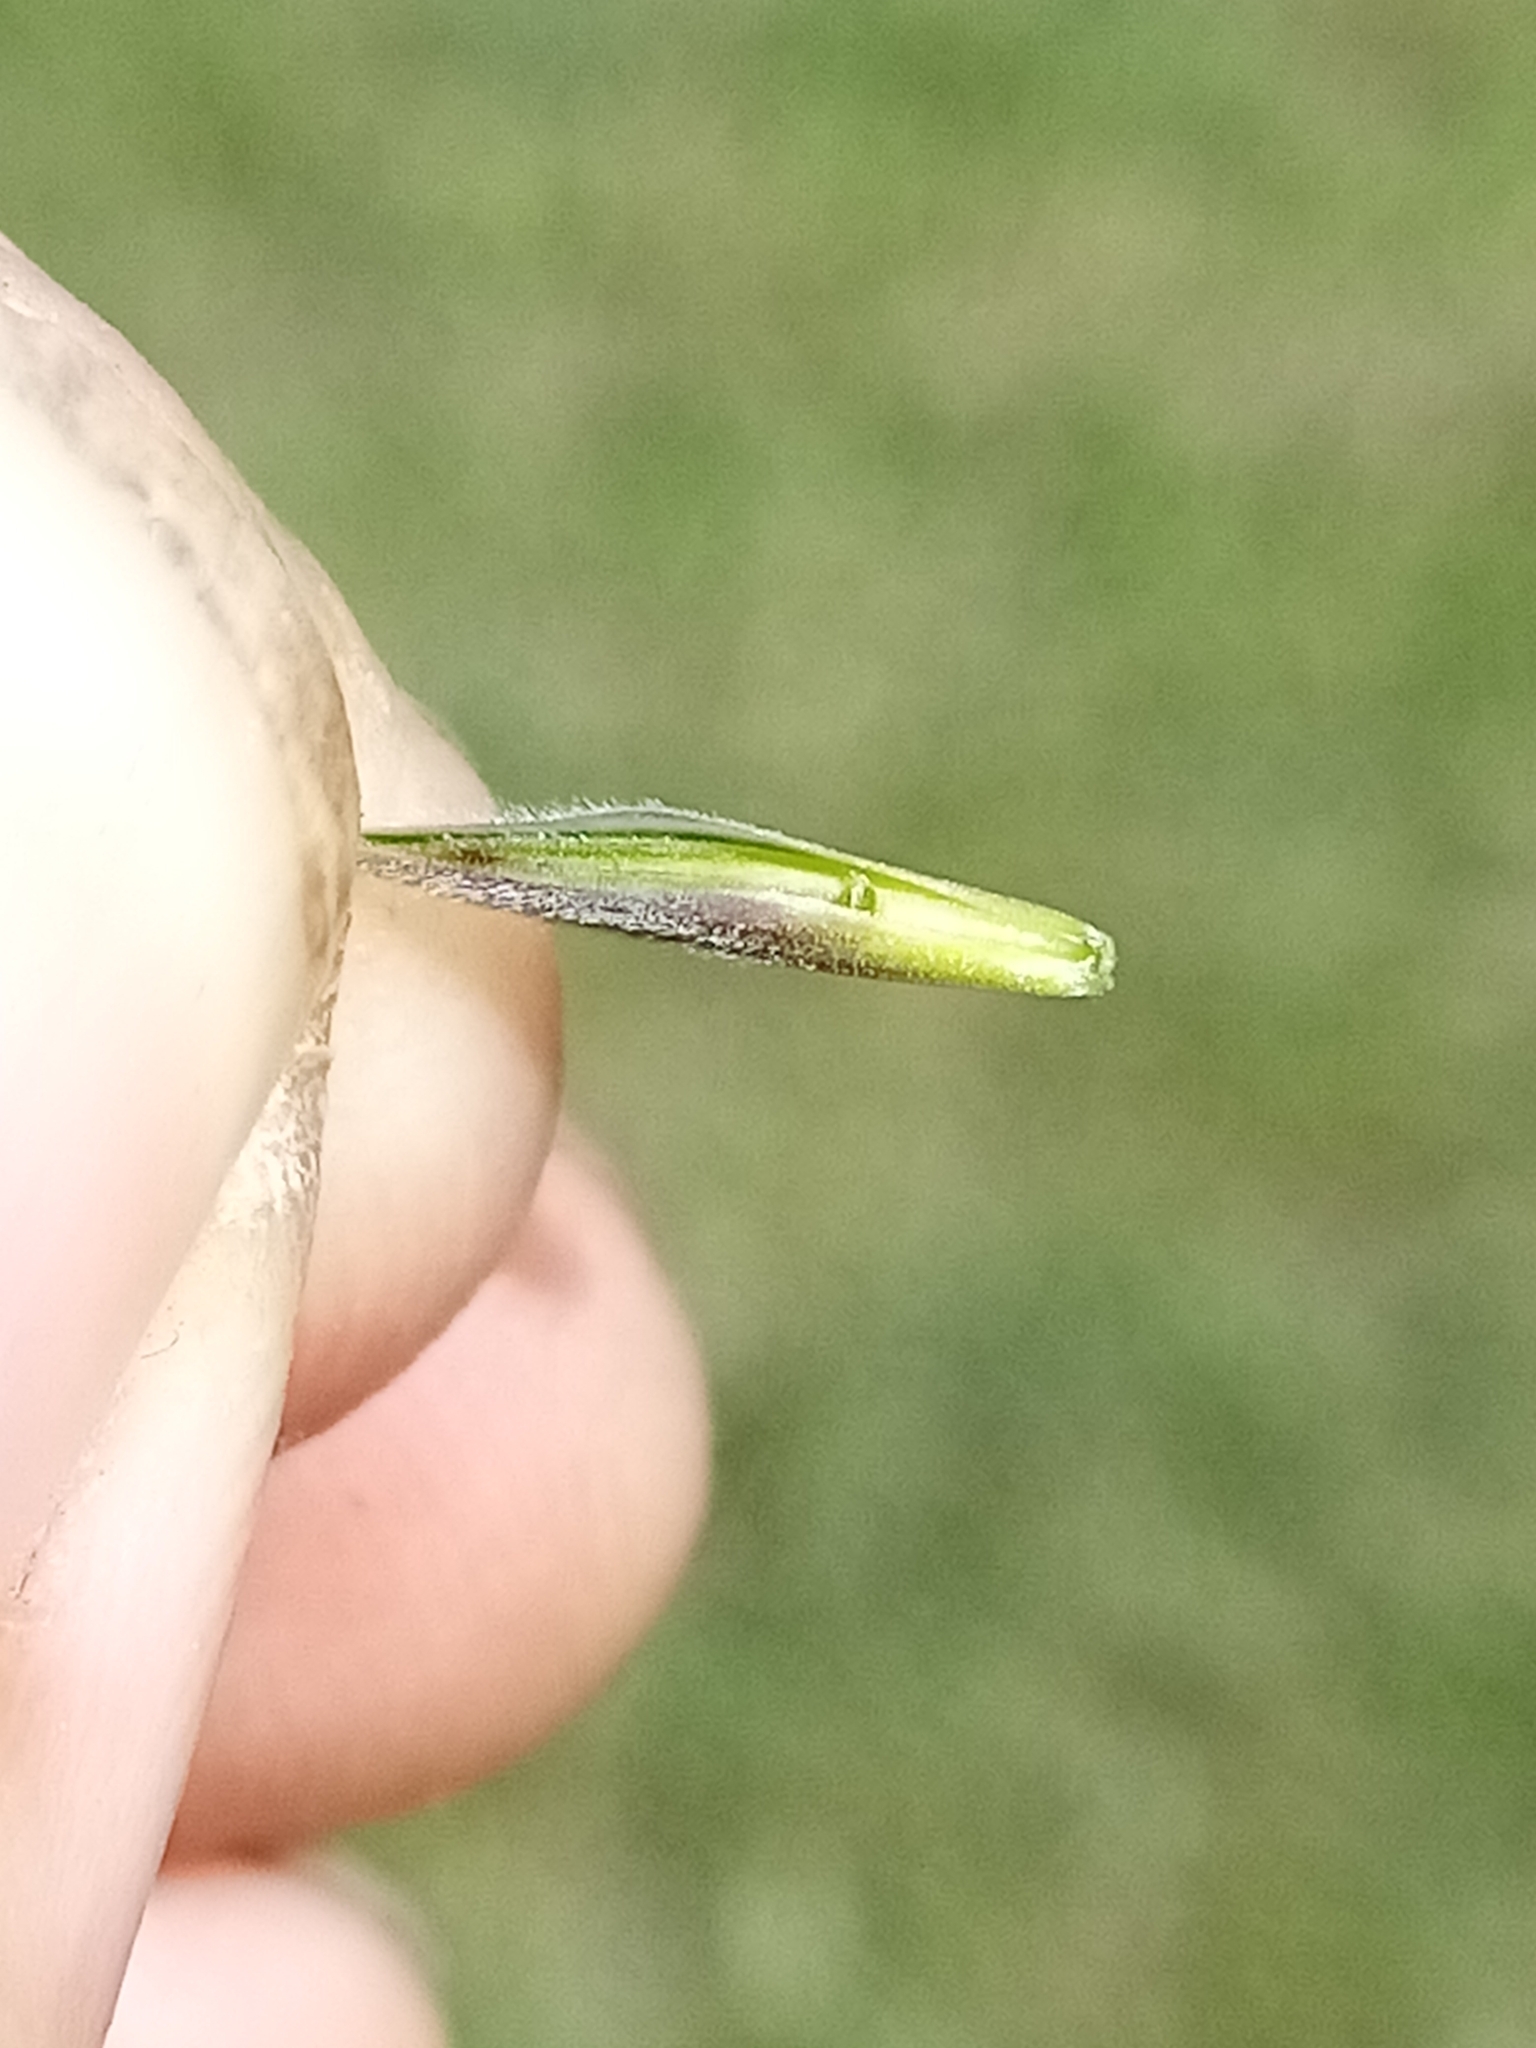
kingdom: Plantae
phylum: Tracheophyta
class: Liliopsida
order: Poales
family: Poaceae
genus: Bromus
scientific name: Bromus lithobius
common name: Chilean brome
